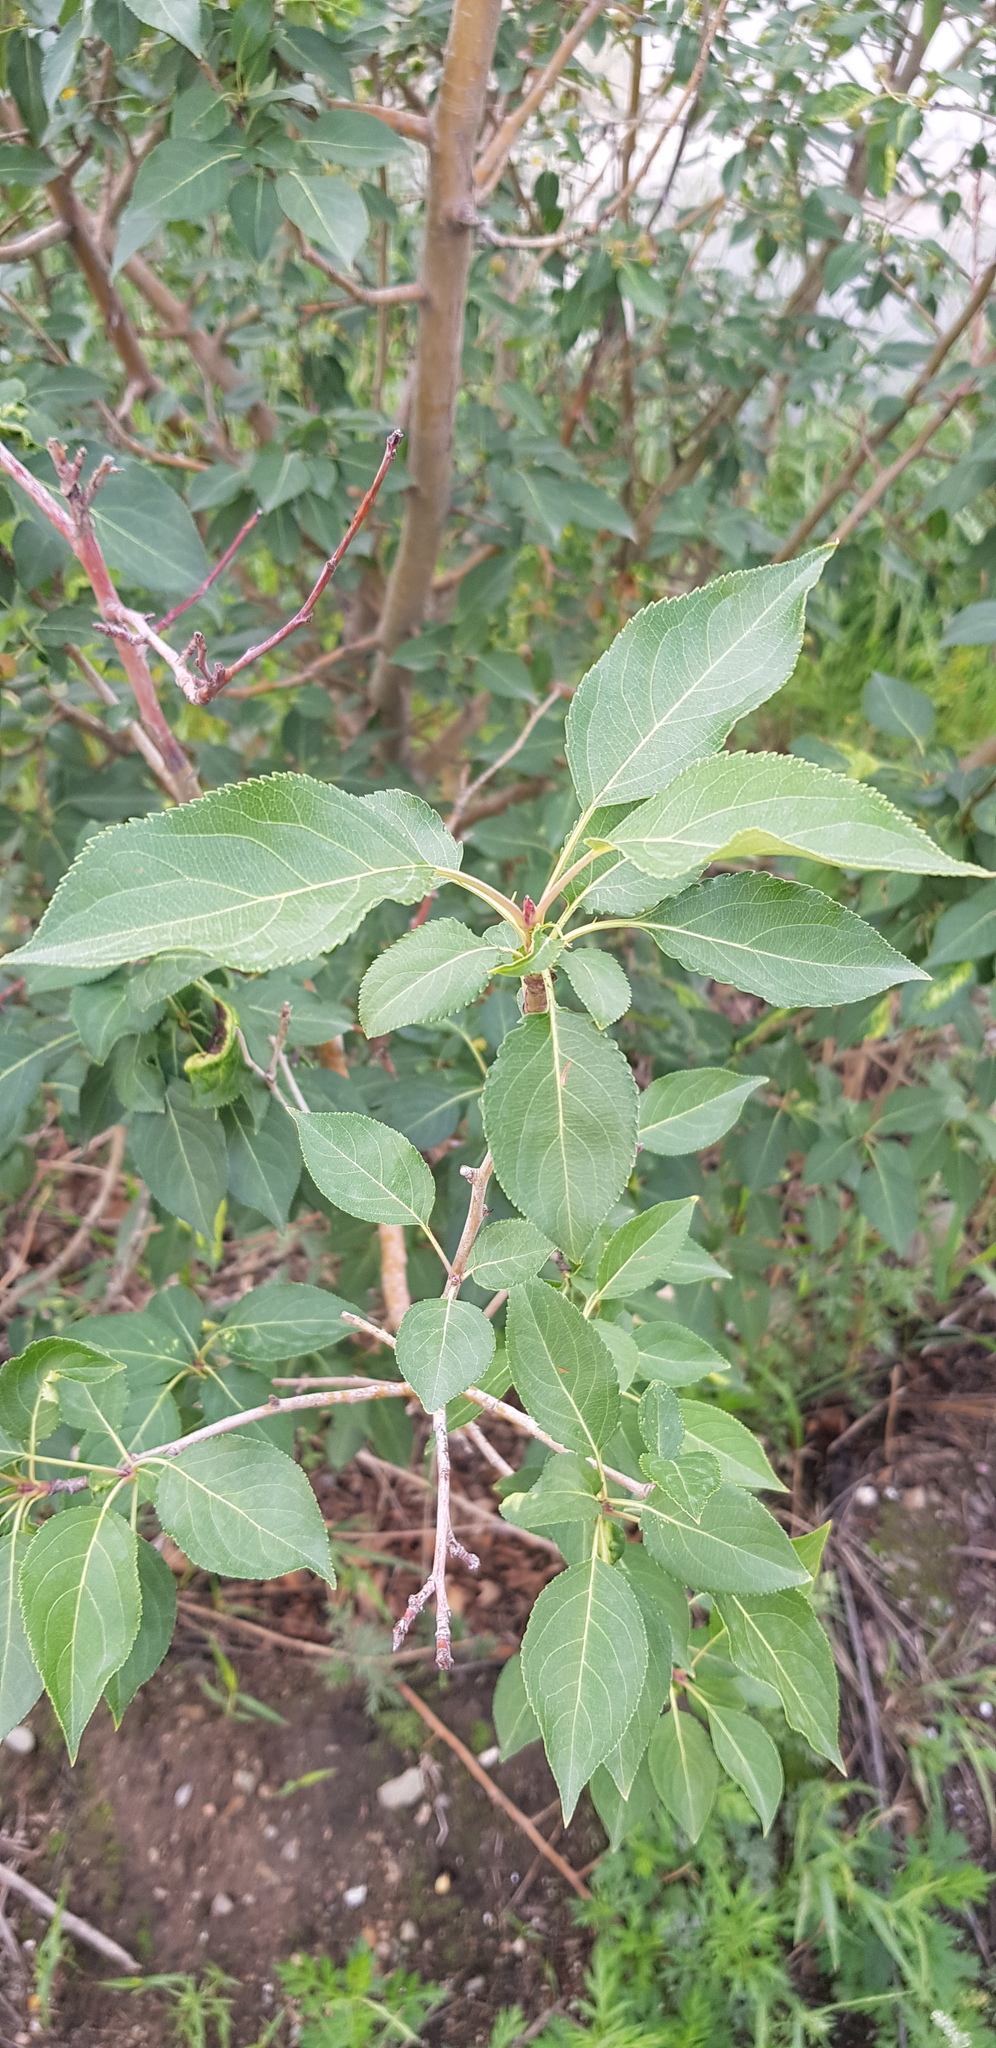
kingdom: Plantae
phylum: Tracheophyta
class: Magnoliopsida
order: Malpighiales
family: Salicaceae
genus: Populus
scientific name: Populus suaveolens
